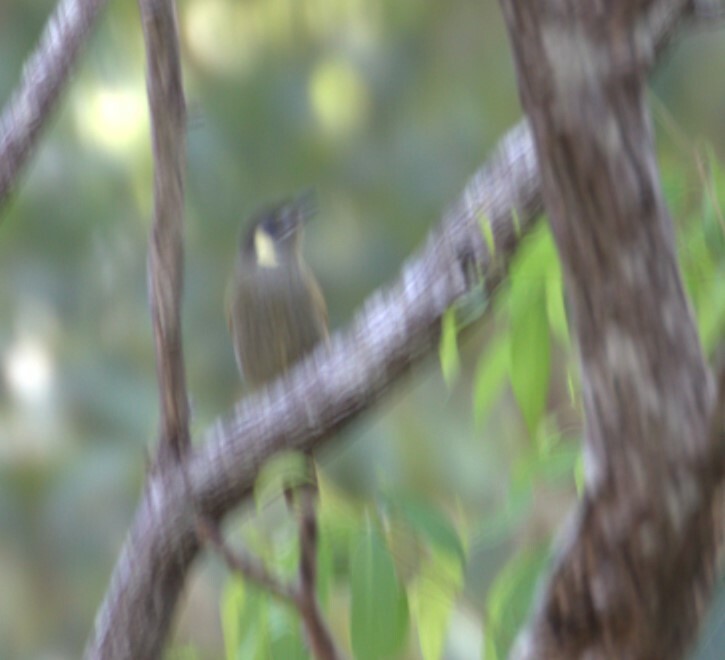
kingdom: Animalia
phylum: Chordata
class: Aves
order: Passeriformes
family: Meliphagidae
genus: Meliphaga
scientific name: Meliphaga lewinii
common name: Lewin's honeyeater
